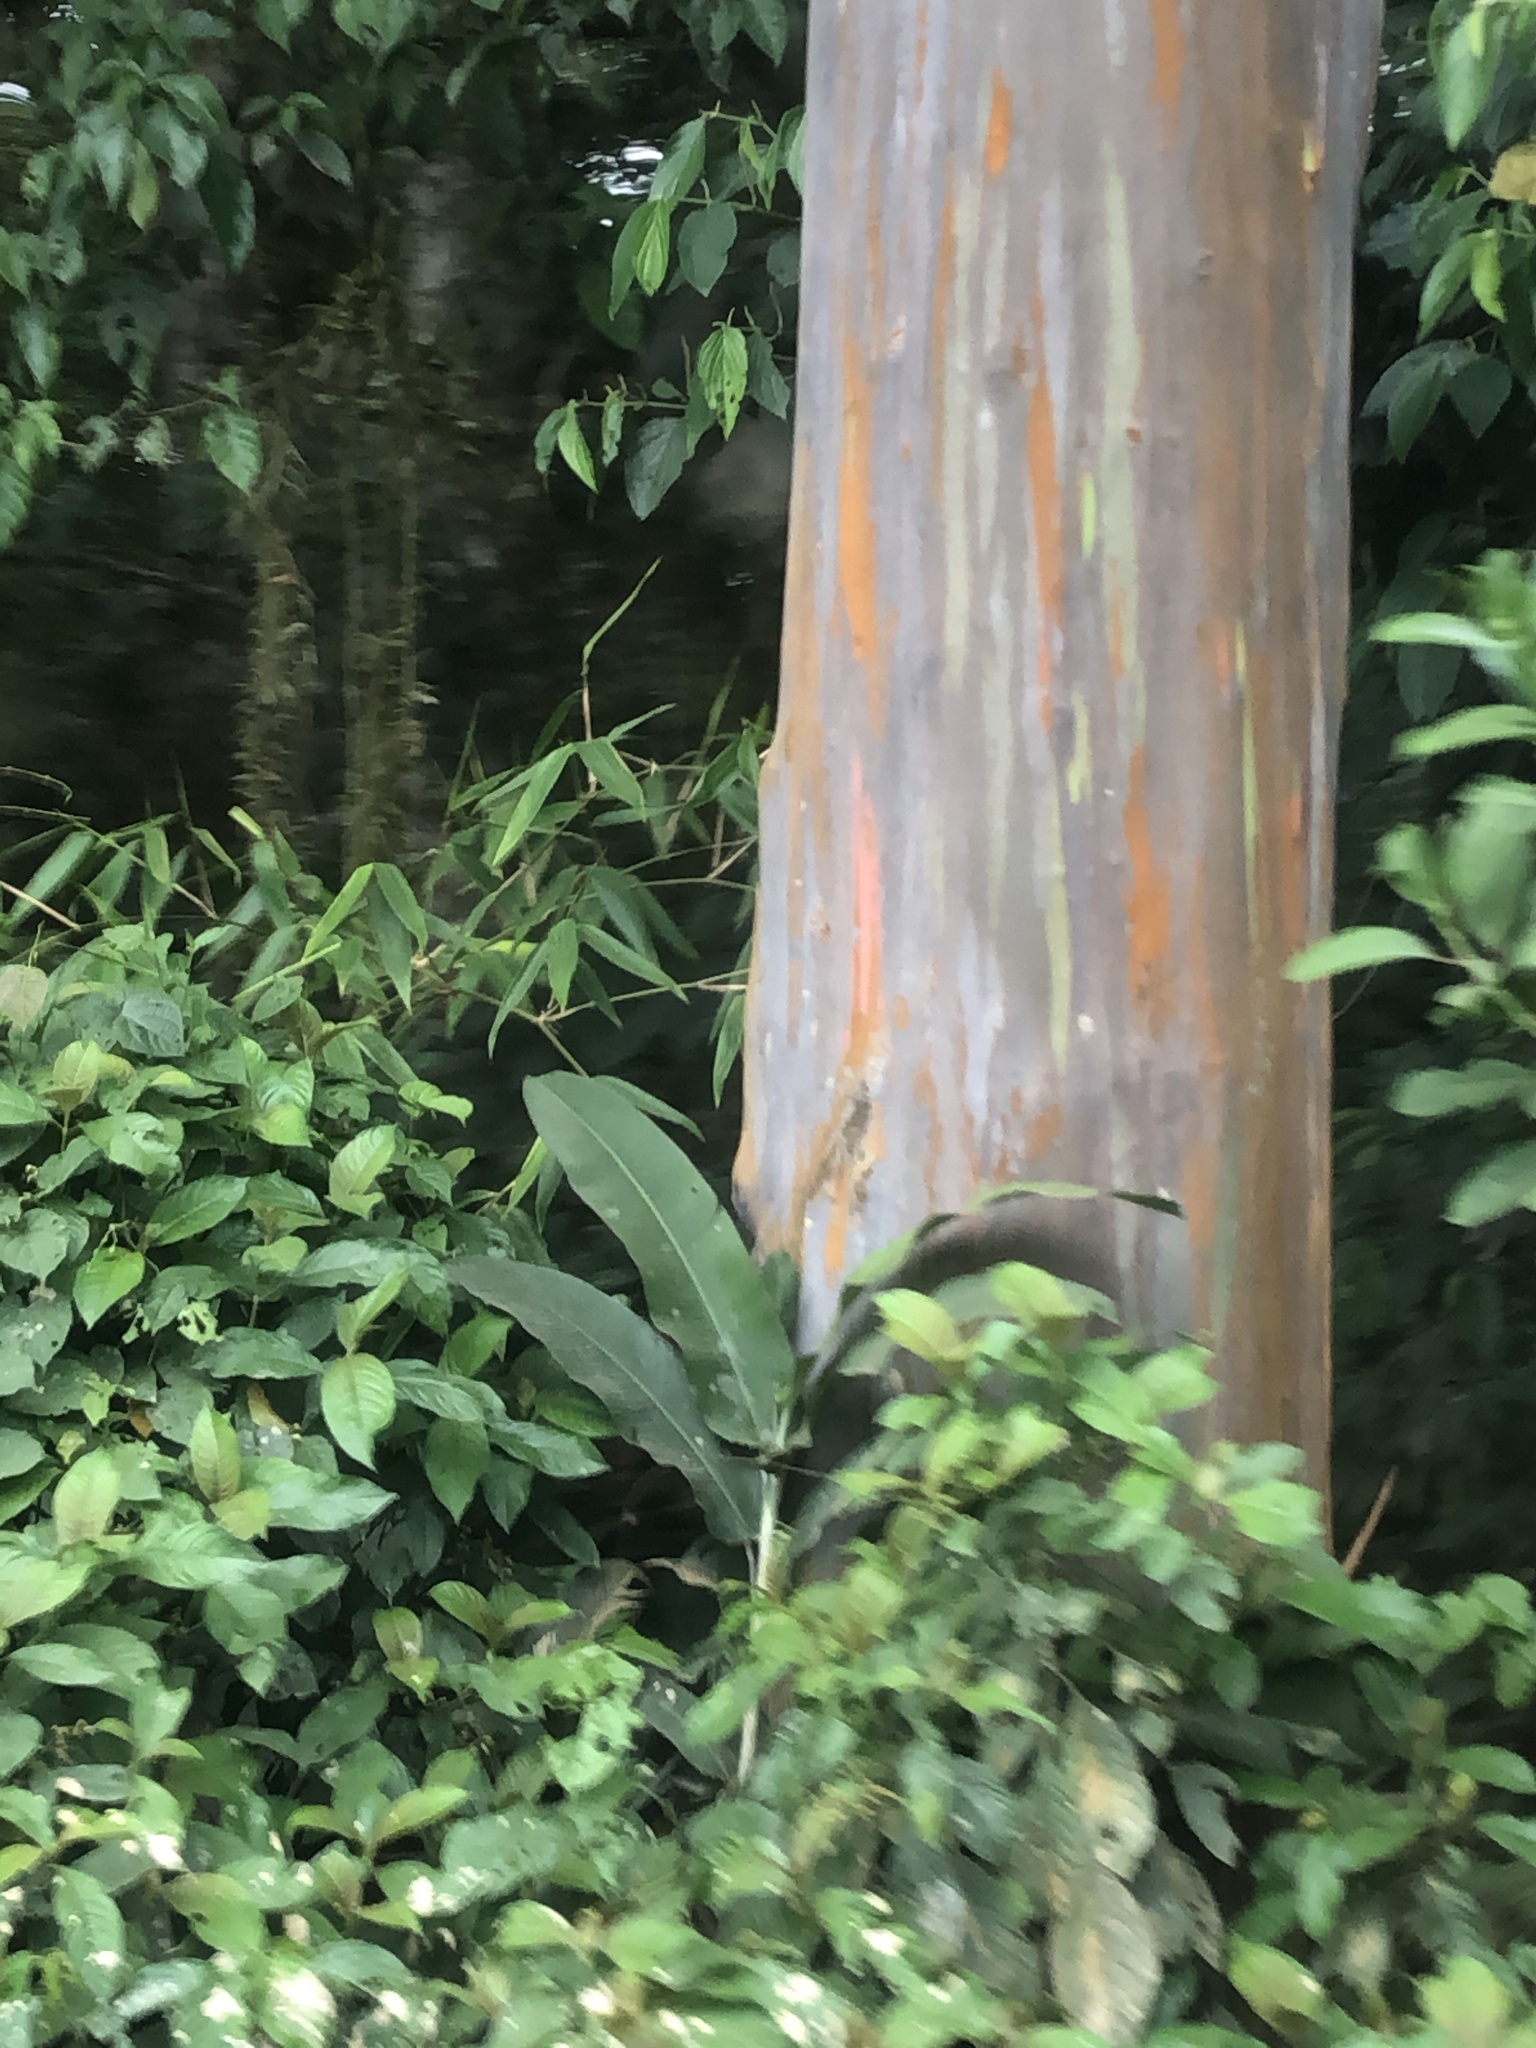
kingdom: Plantae
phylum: Tracheophyta
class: Magnoliopsida
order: Myrtales
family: Myrtaceae
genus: Eucalyptus
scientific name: Eucalyptus deglupta
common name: Mindanao gum
